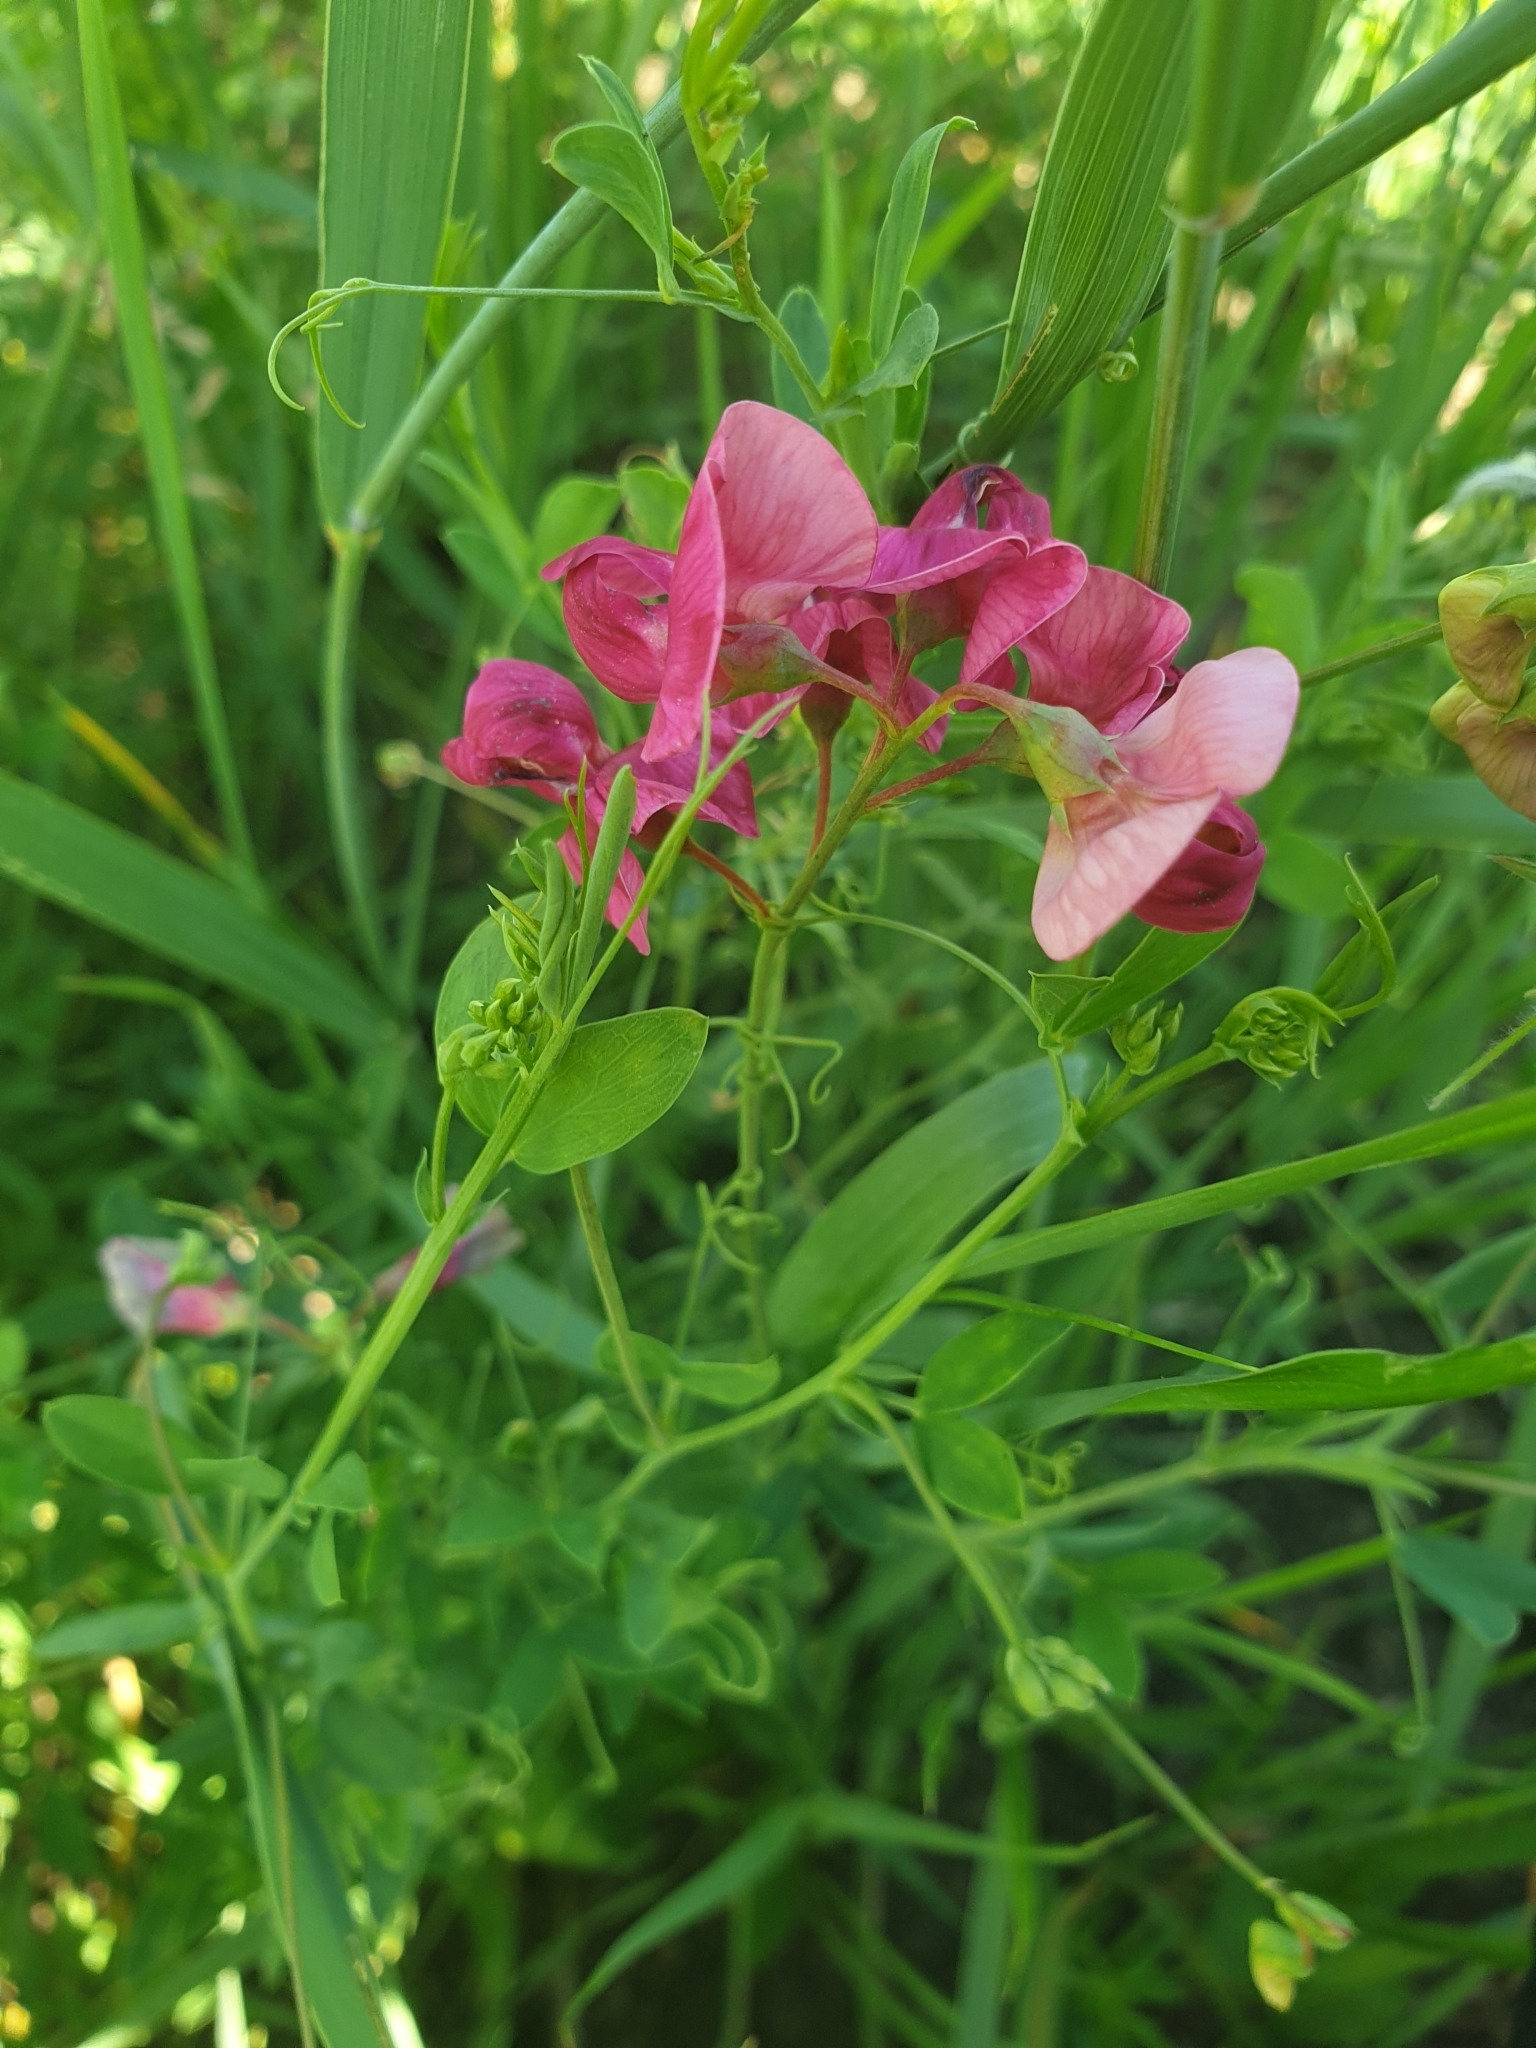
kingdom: Plantae
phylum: Tracheophyta
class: Magnoliopsida
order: Fabales
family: Fabaceae
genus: Lathyrus
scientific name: Lathyrus tuberosus
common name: Tuberous pea
